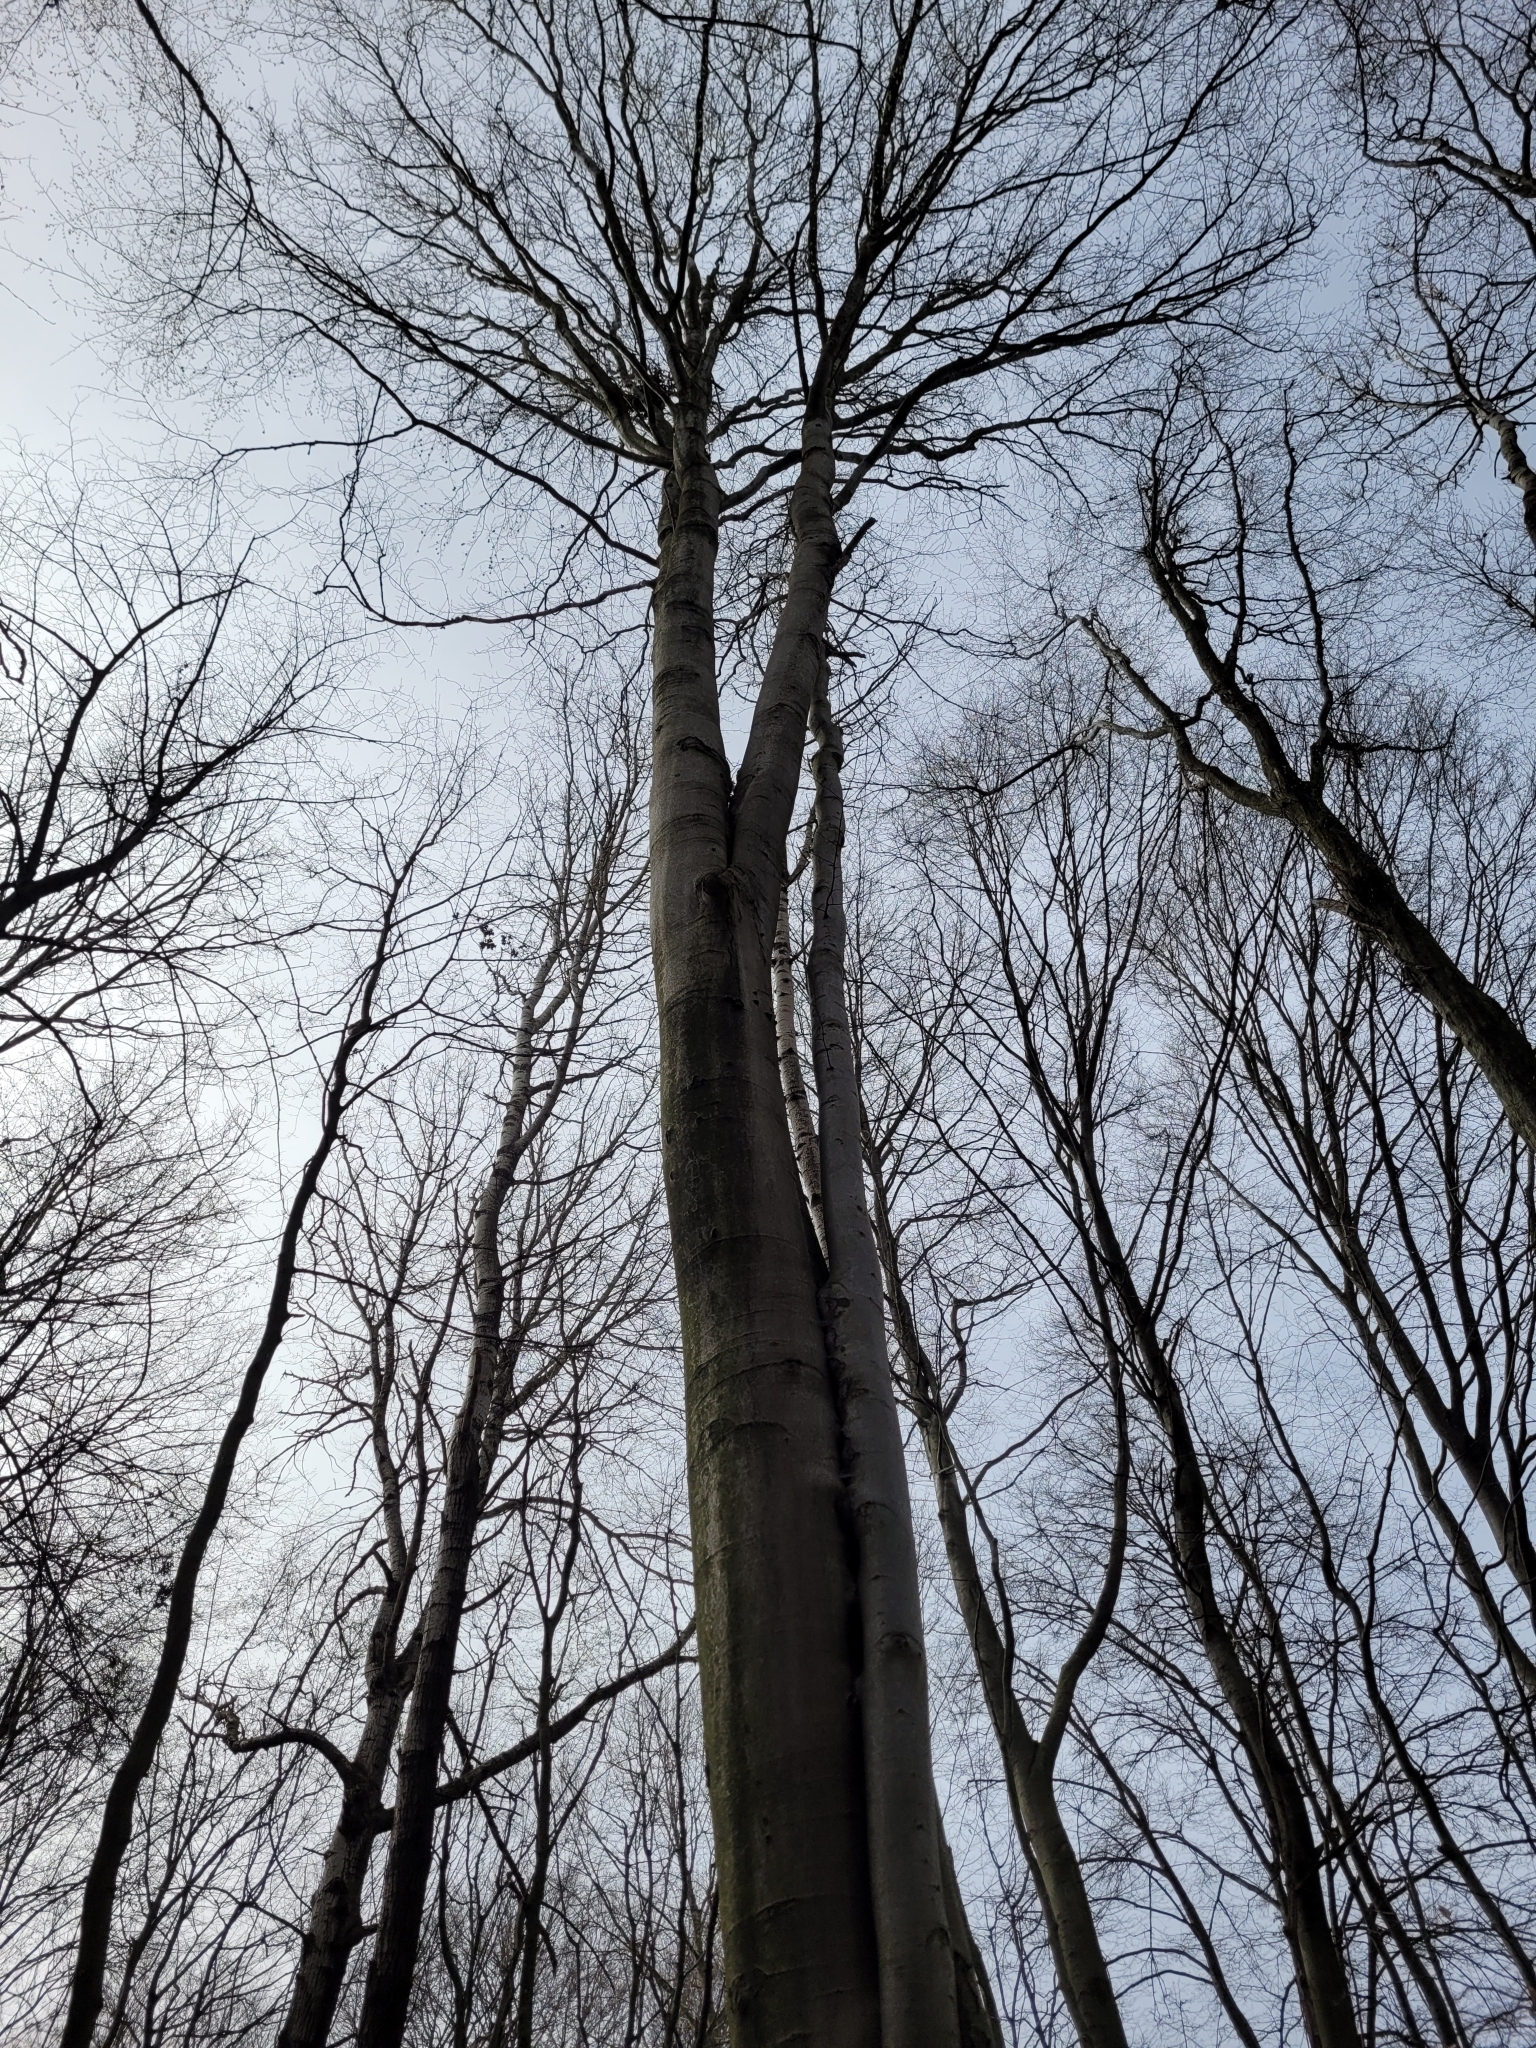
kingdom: Plantae
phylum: Tracheophyta
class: Magnoliopsida
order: Fagales
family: Fagaceae
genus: Fagus
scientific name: Fagus sylvatica
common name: Beech
